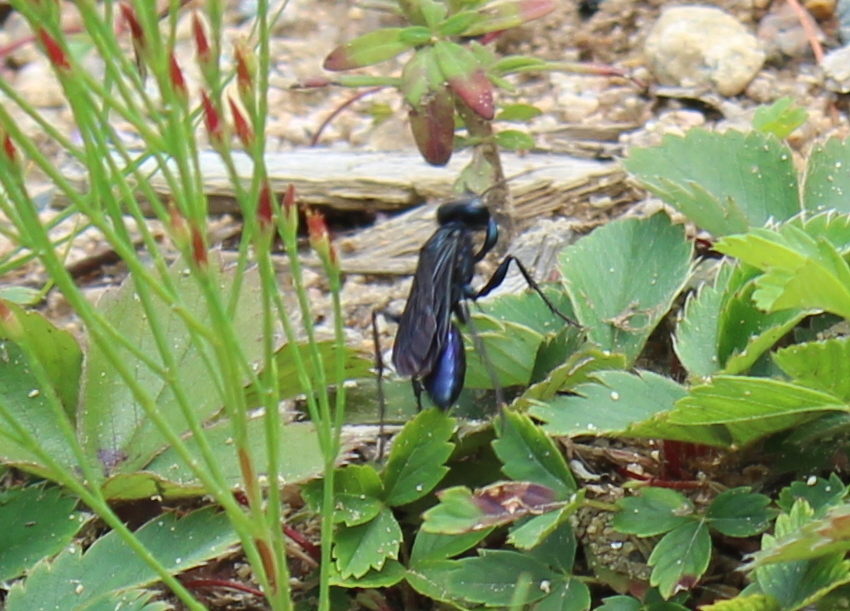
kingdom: Animalia
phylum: Arthropoda
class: Insecta
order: Hymenoptera
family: Sphecidae
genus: Chlorion
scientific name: Chlorion aerarium
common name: Steel-blue cricket hunter
